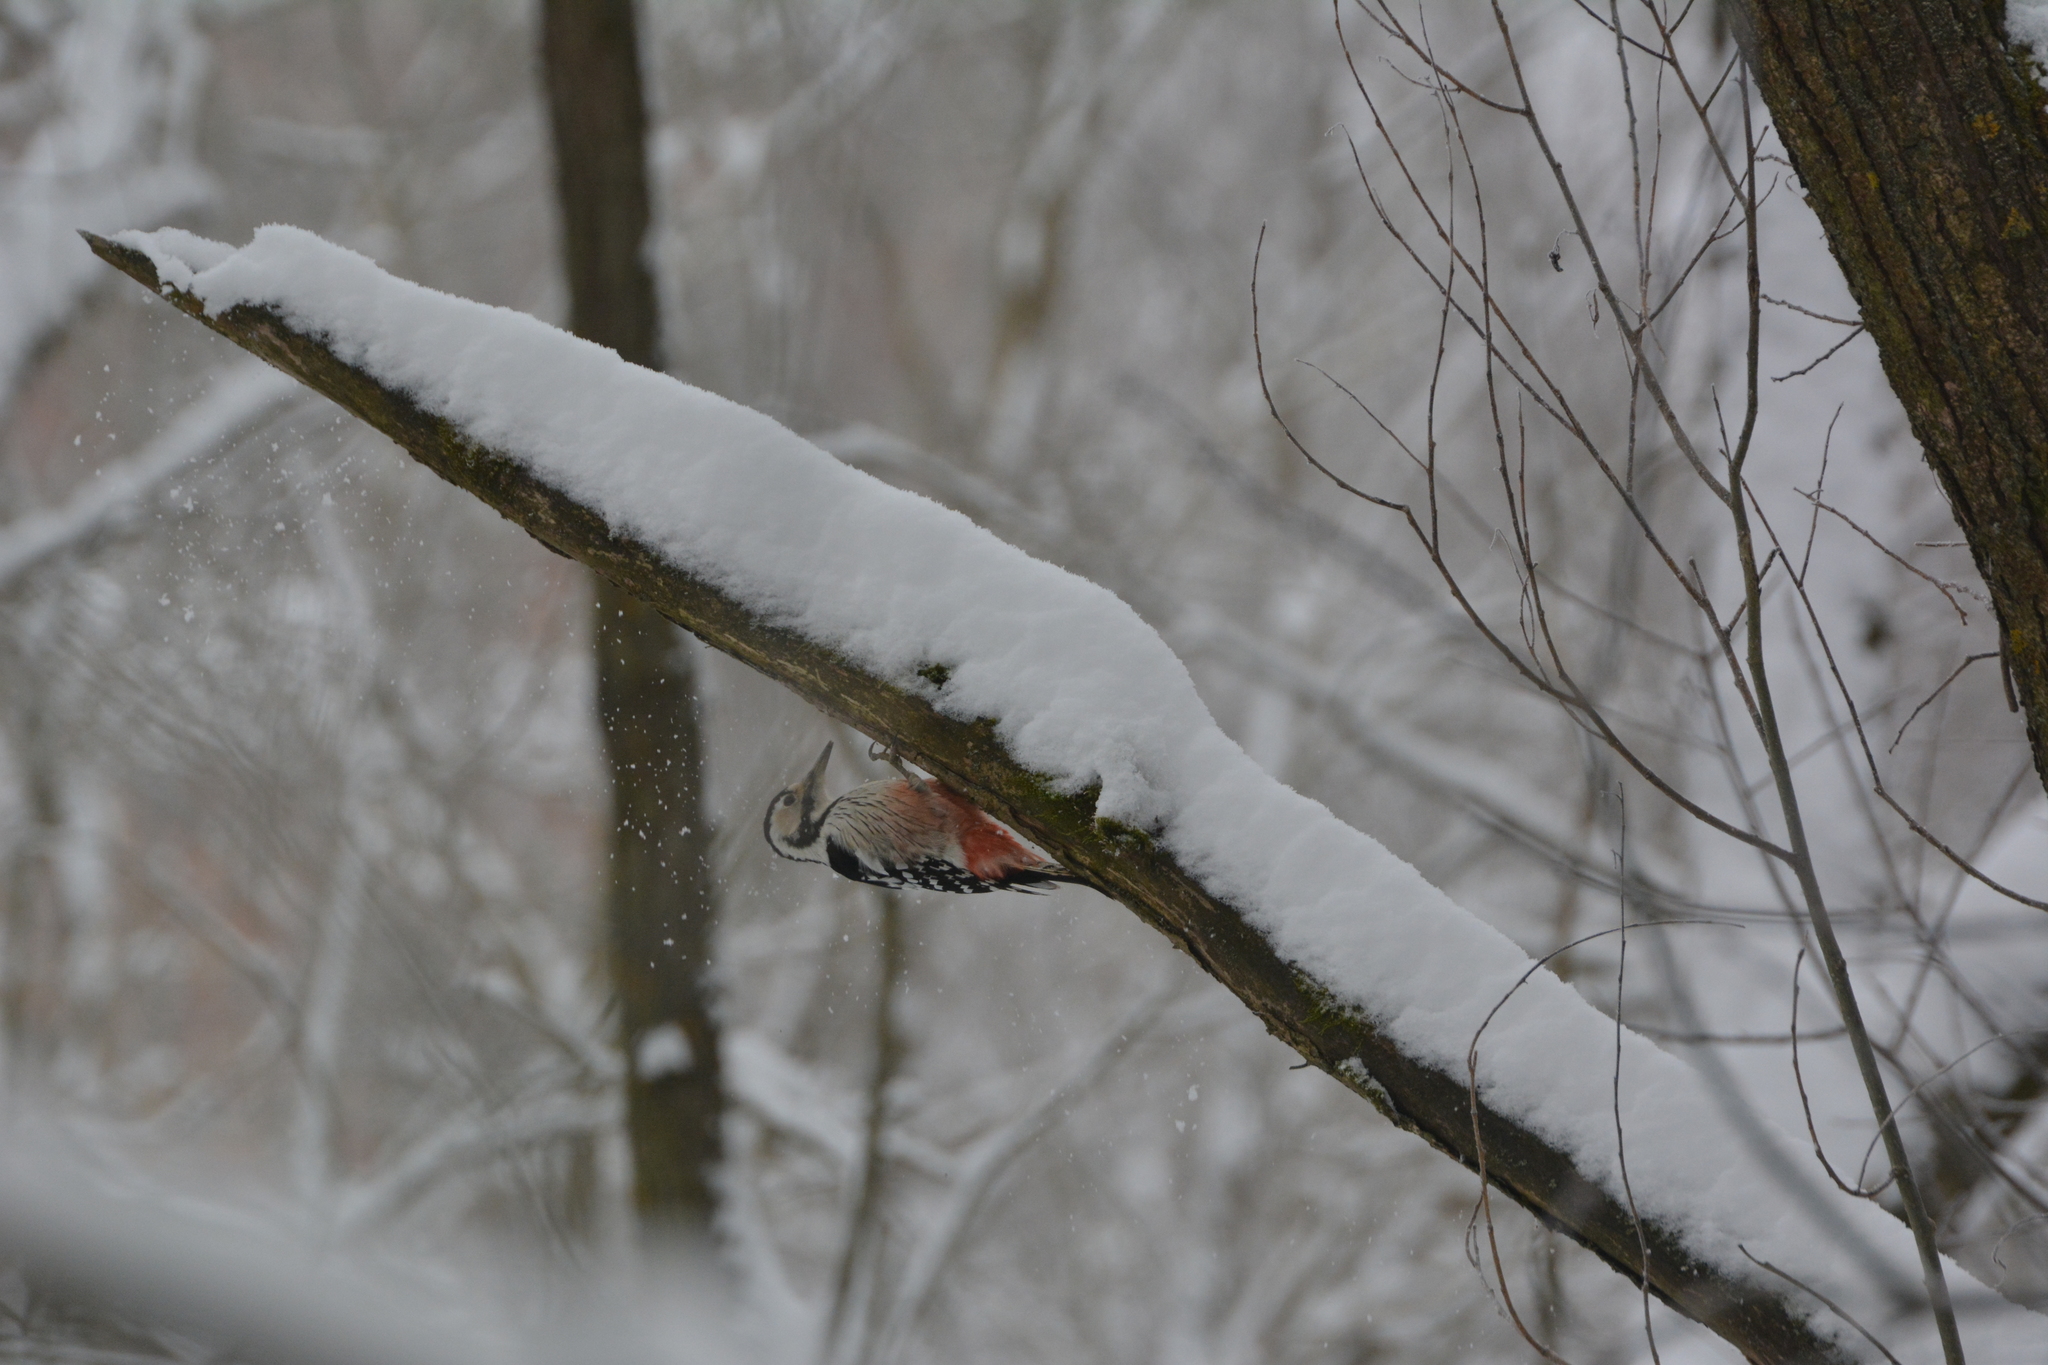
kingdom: Animalia
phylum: Chordata
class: Aves
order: Piciformes
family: Picidae
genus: Dendrocopos
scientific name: Dendrocopos leucotos
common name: White-backed woodpecker
